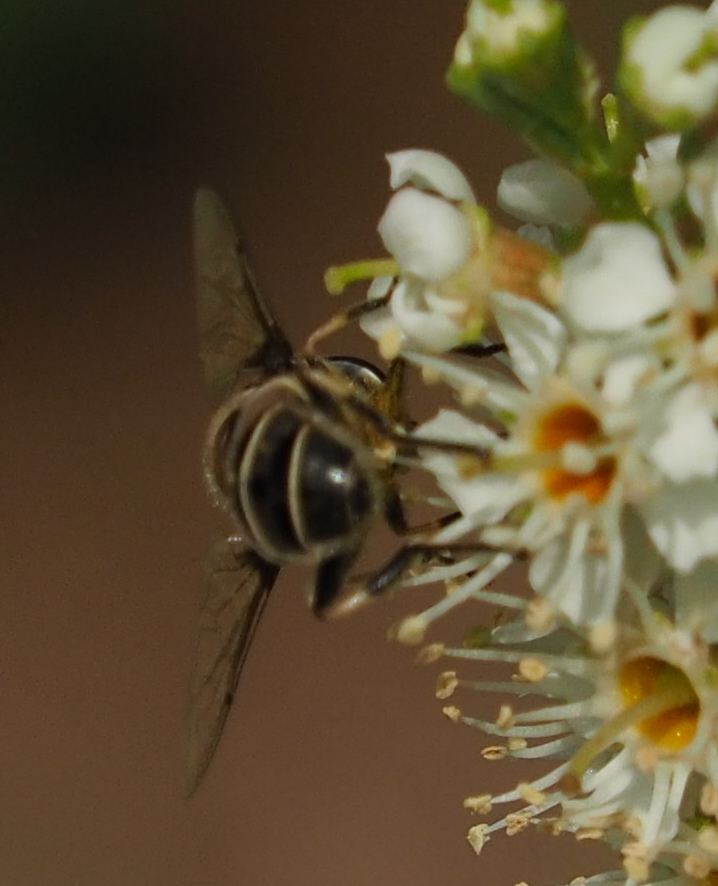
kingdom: Animalia
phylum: Arthropoda
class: Insecta
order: Diptera
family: Syrphidae
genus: Eristalis
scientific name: Eristalis dimidiata
